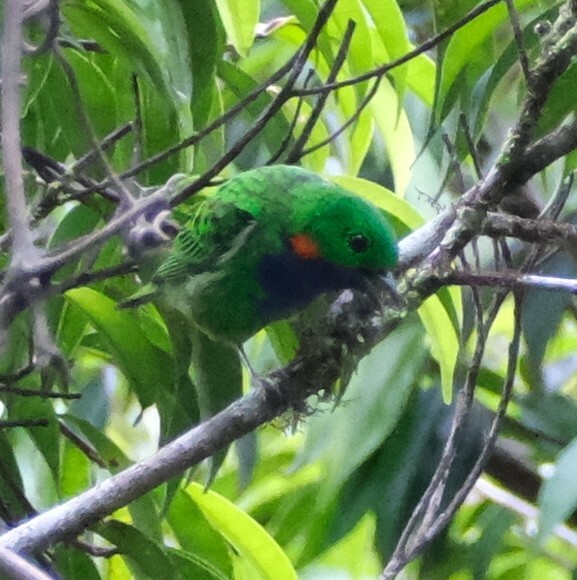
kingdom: Animalia
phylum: Chordata
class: Aves
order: Passeriformes
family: Thraupidae
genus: Chlorochrysa
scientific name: Chlorochrysa calliparaea
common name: Orange-eared tanager
